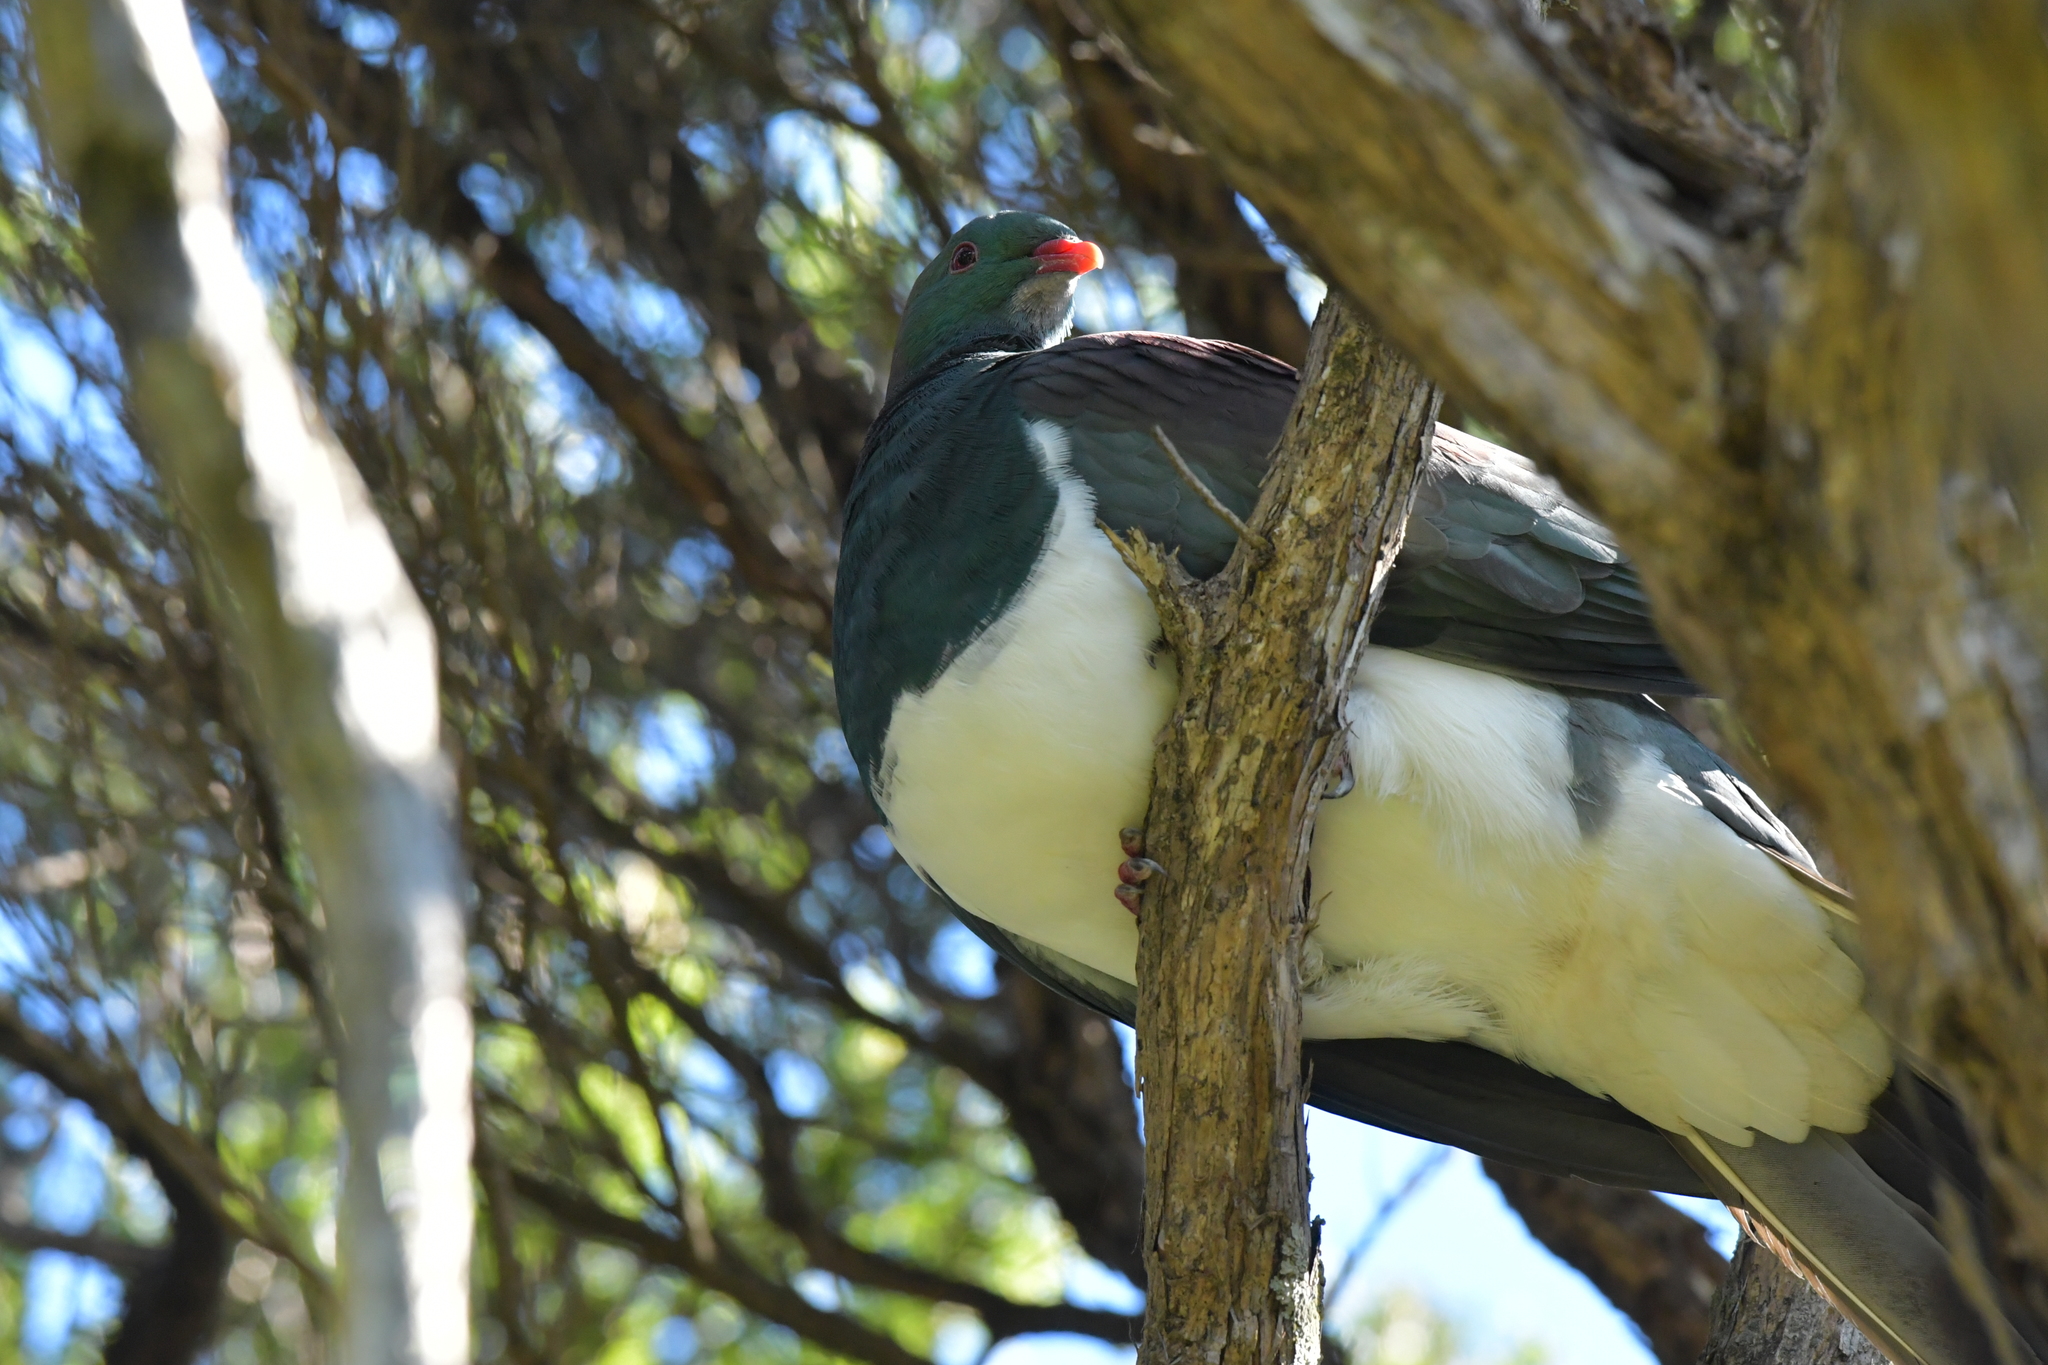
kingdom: Animalia
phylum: Chordata
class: Aves
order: Columbiformes
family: Columbidae
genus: Hemiphaga
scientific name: Hemiphaga novaeseelandiae
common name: New zealand pigeon
